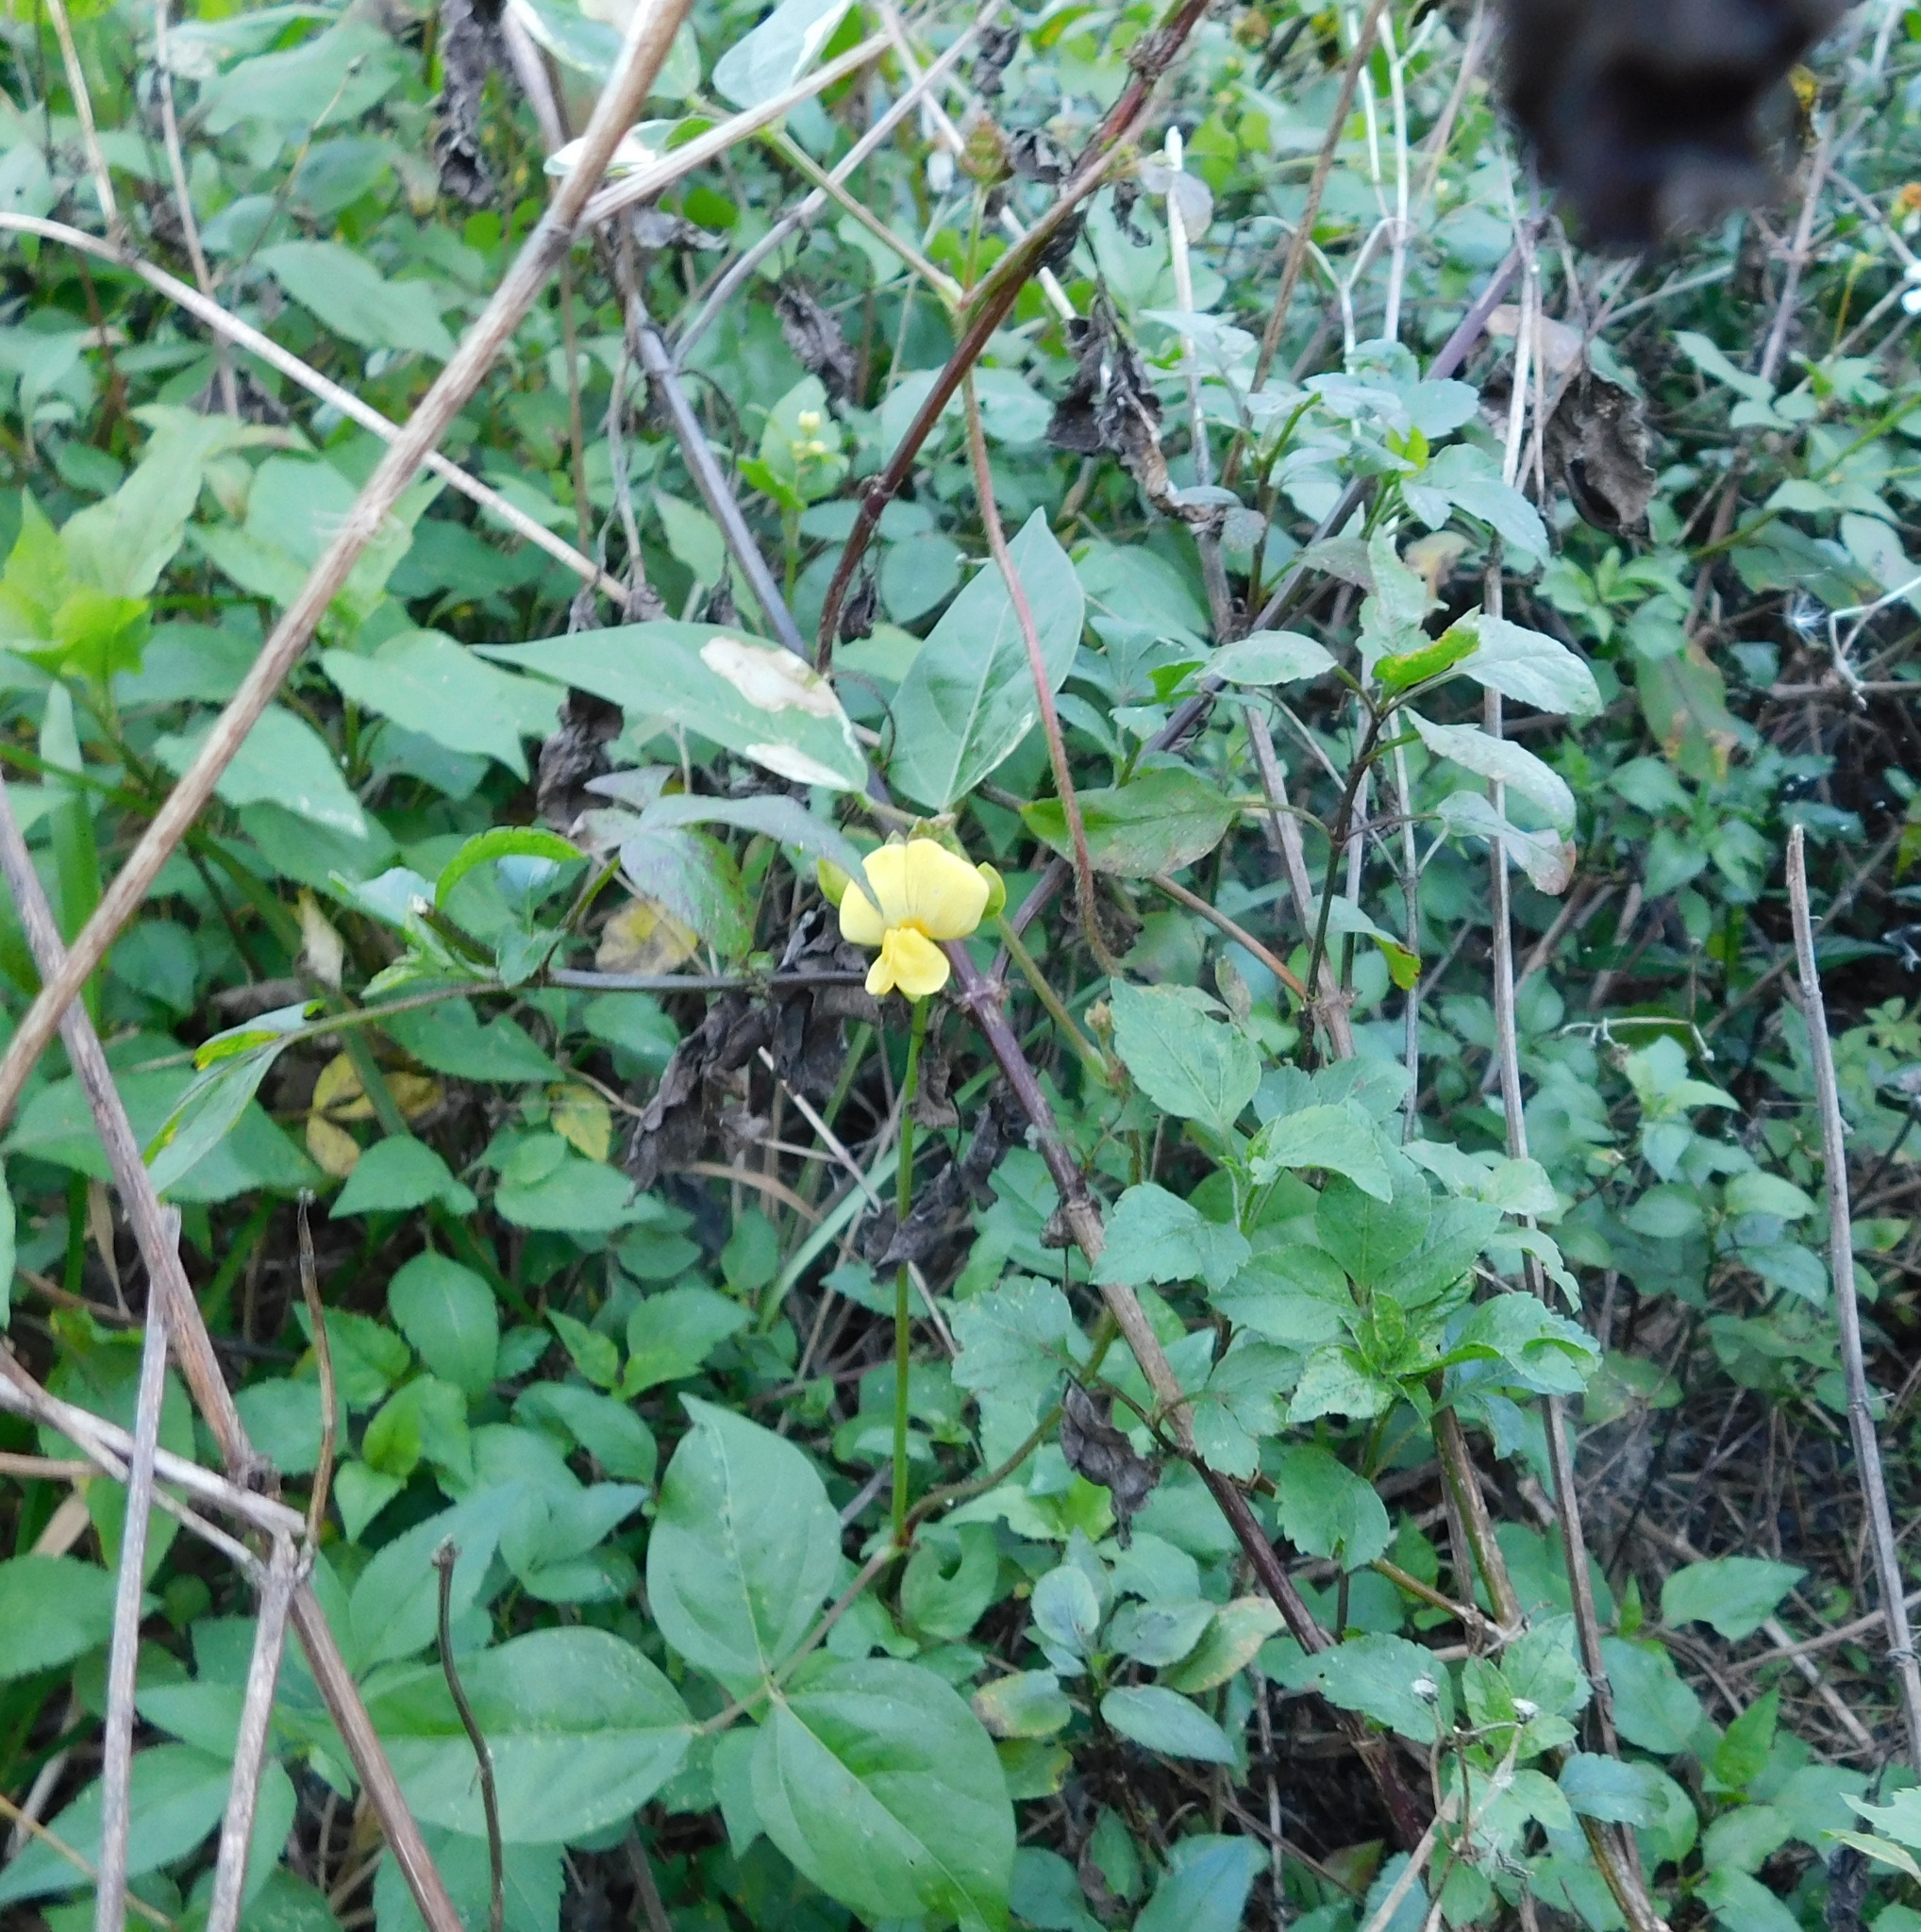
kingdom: Plantae
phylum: Tracheophyta
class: Magnoliopsida
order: Fabales
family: Fabaceae
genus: Vigna
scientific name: Vigna luteola
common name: Hairypod cowpea
